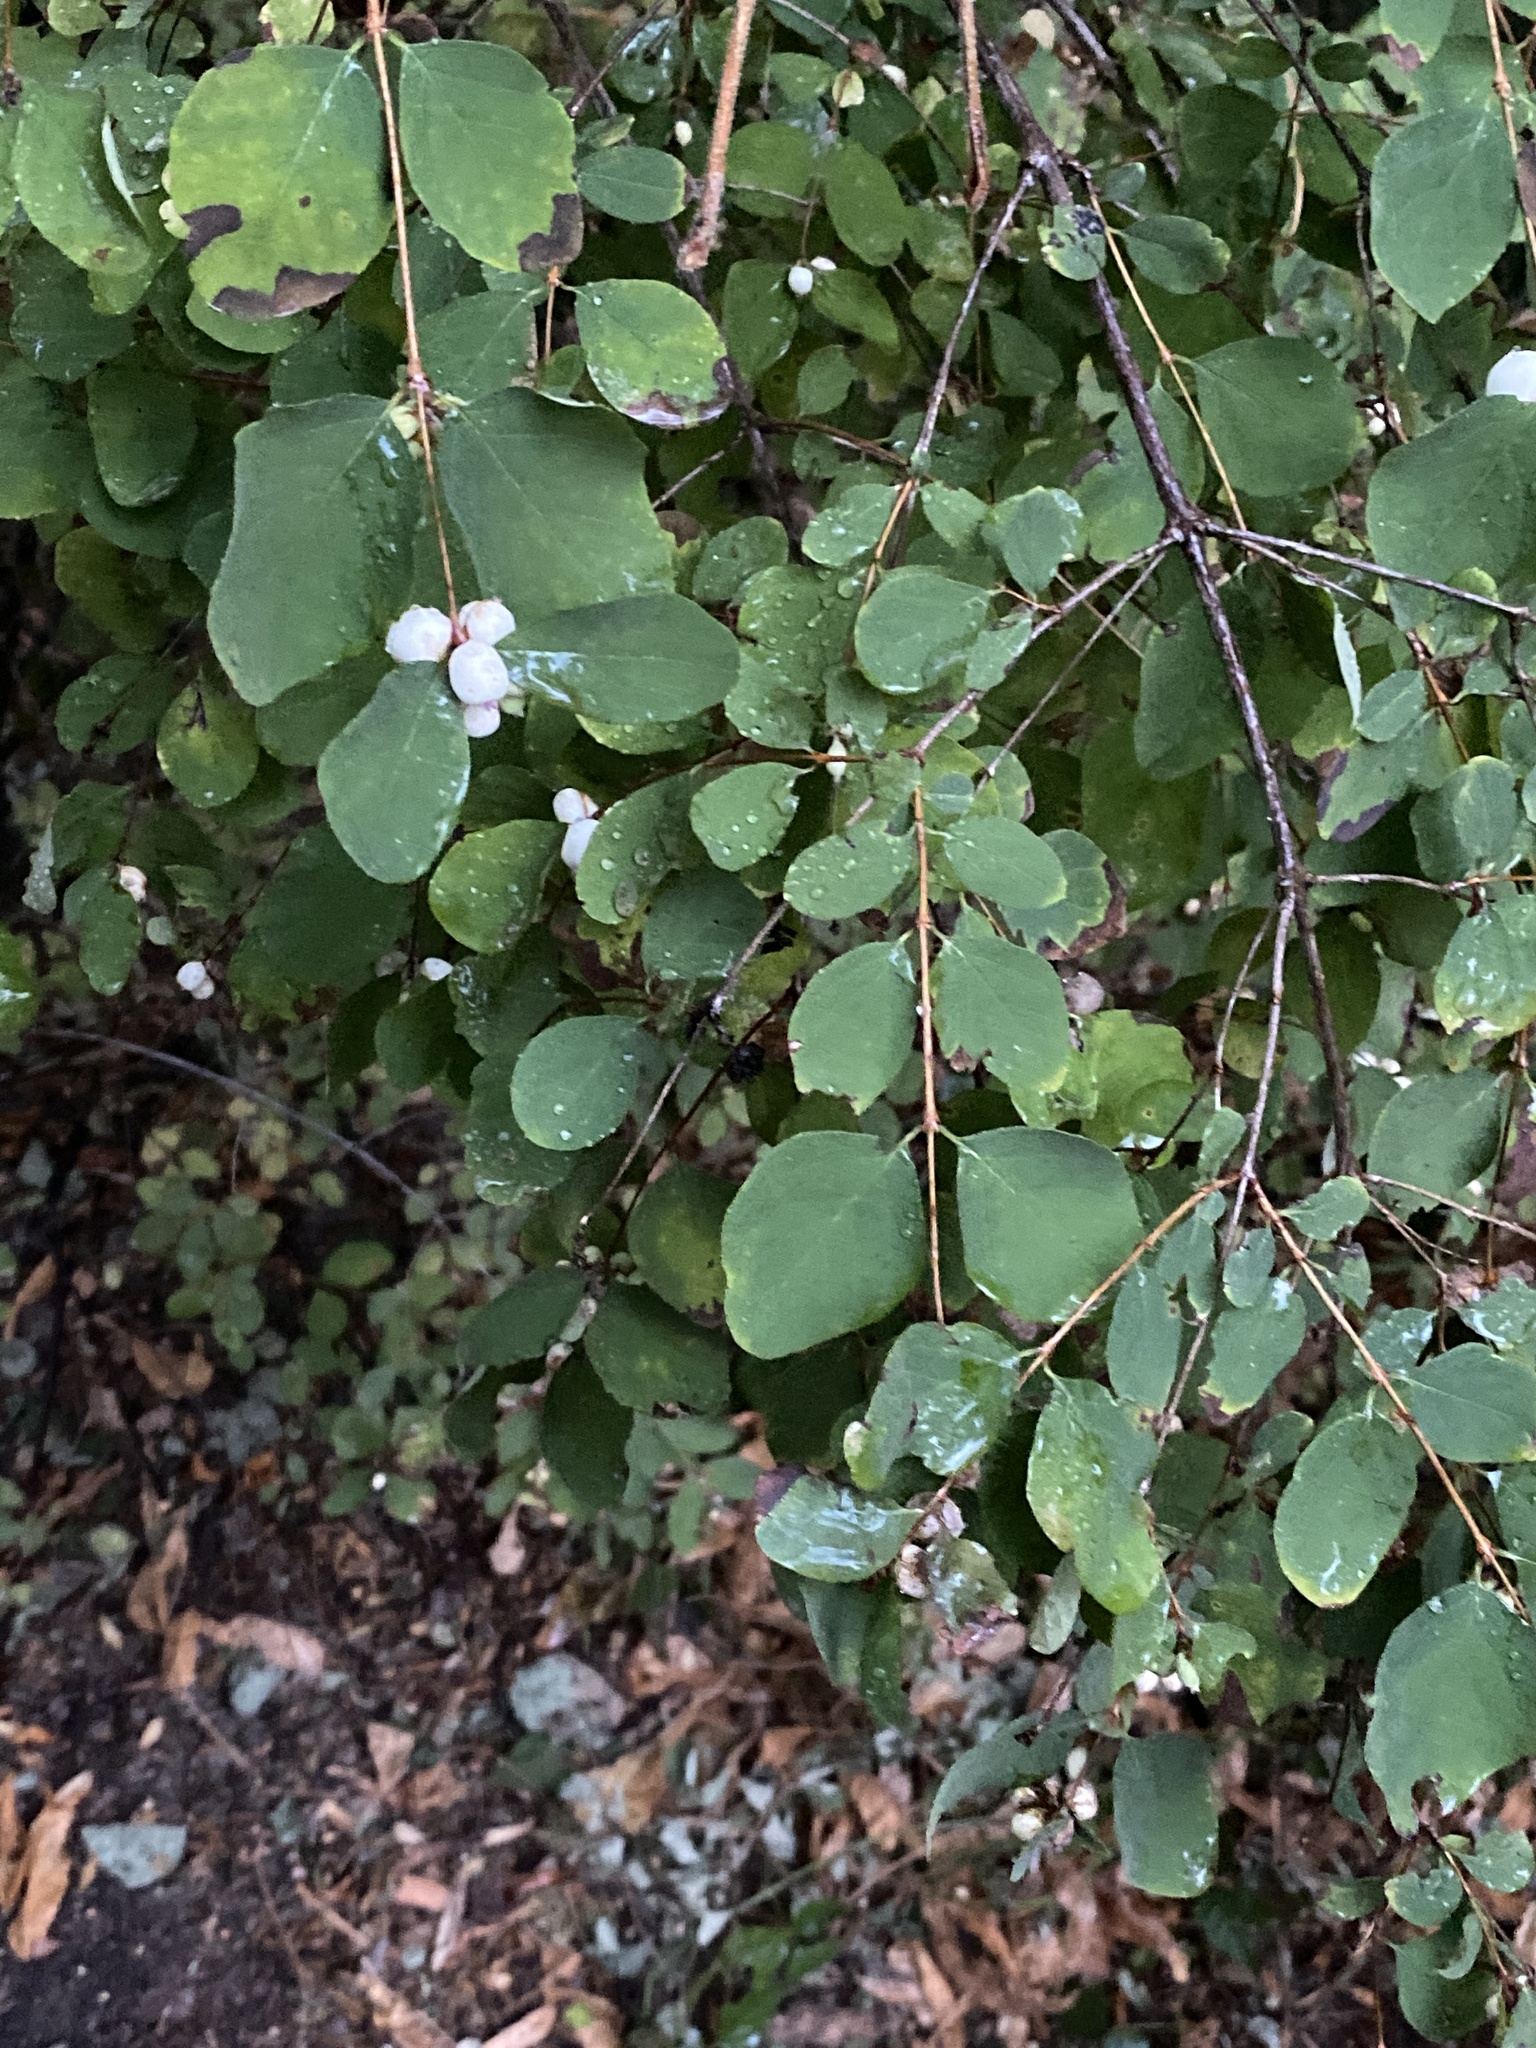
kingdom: Plantae
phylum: Tracheophyta
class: Magnoliopsida
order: Dipsacales
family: Caprifoliaceae
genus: Symphoricarpos
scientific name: Symphoricarpos albus
